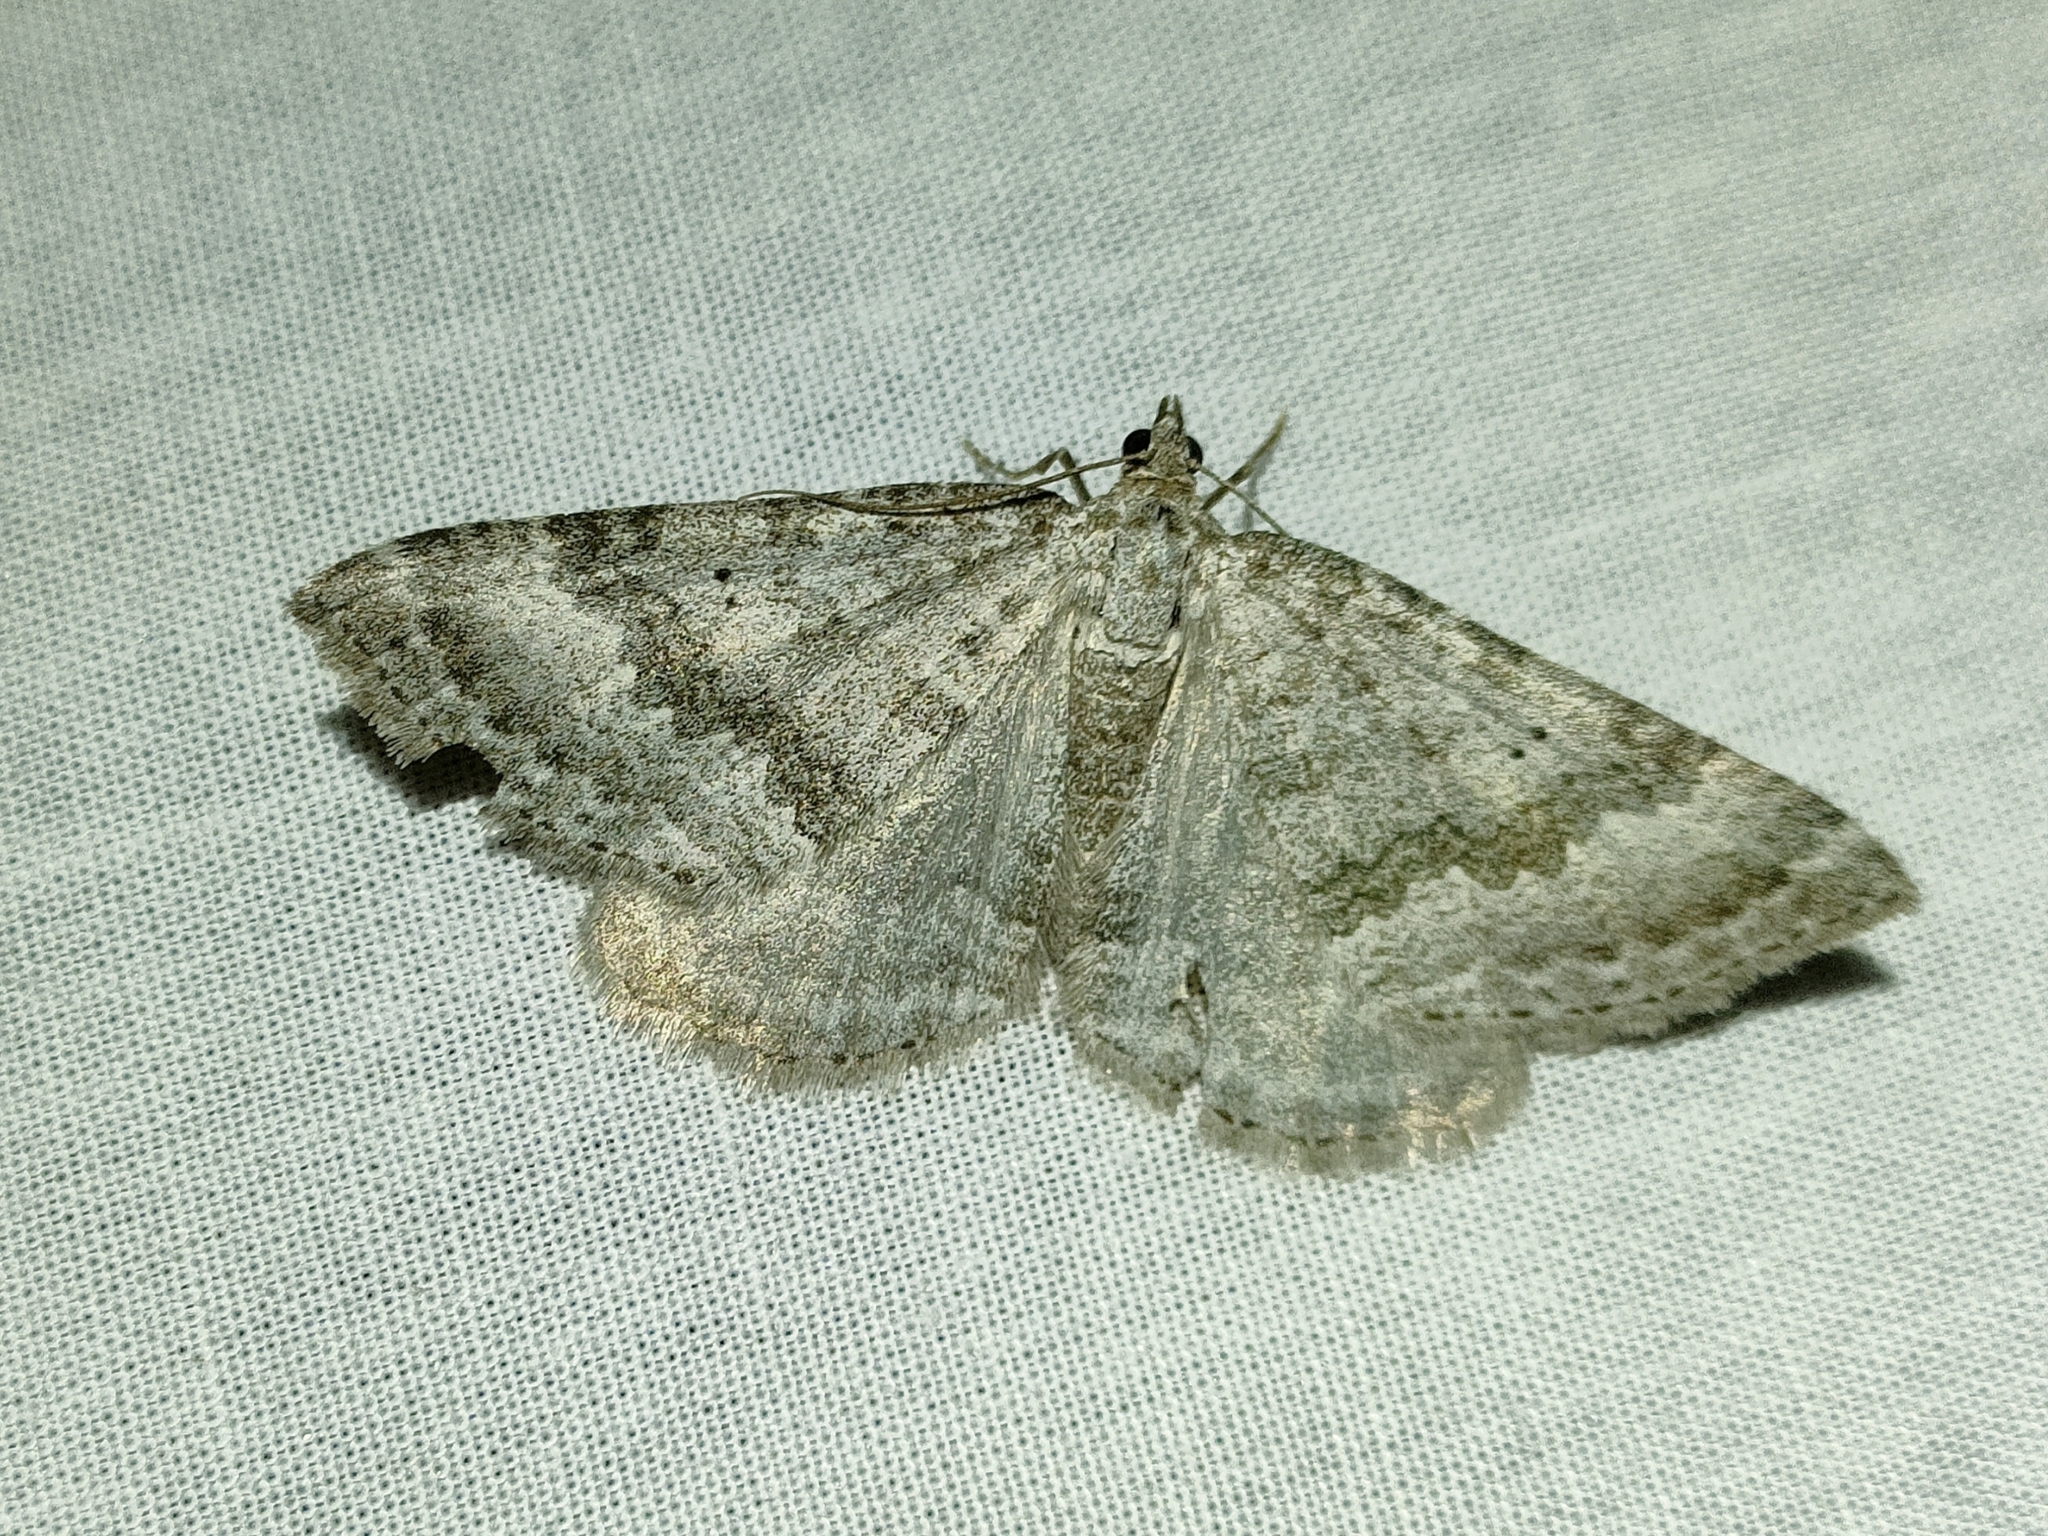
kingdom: Animalia
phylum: Arthropoda
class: Insecta
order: Lepidoptera
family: Geometridae
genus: Scotopteryx
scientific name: Scotopteryx bipunctaria
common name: Chalk carpet
